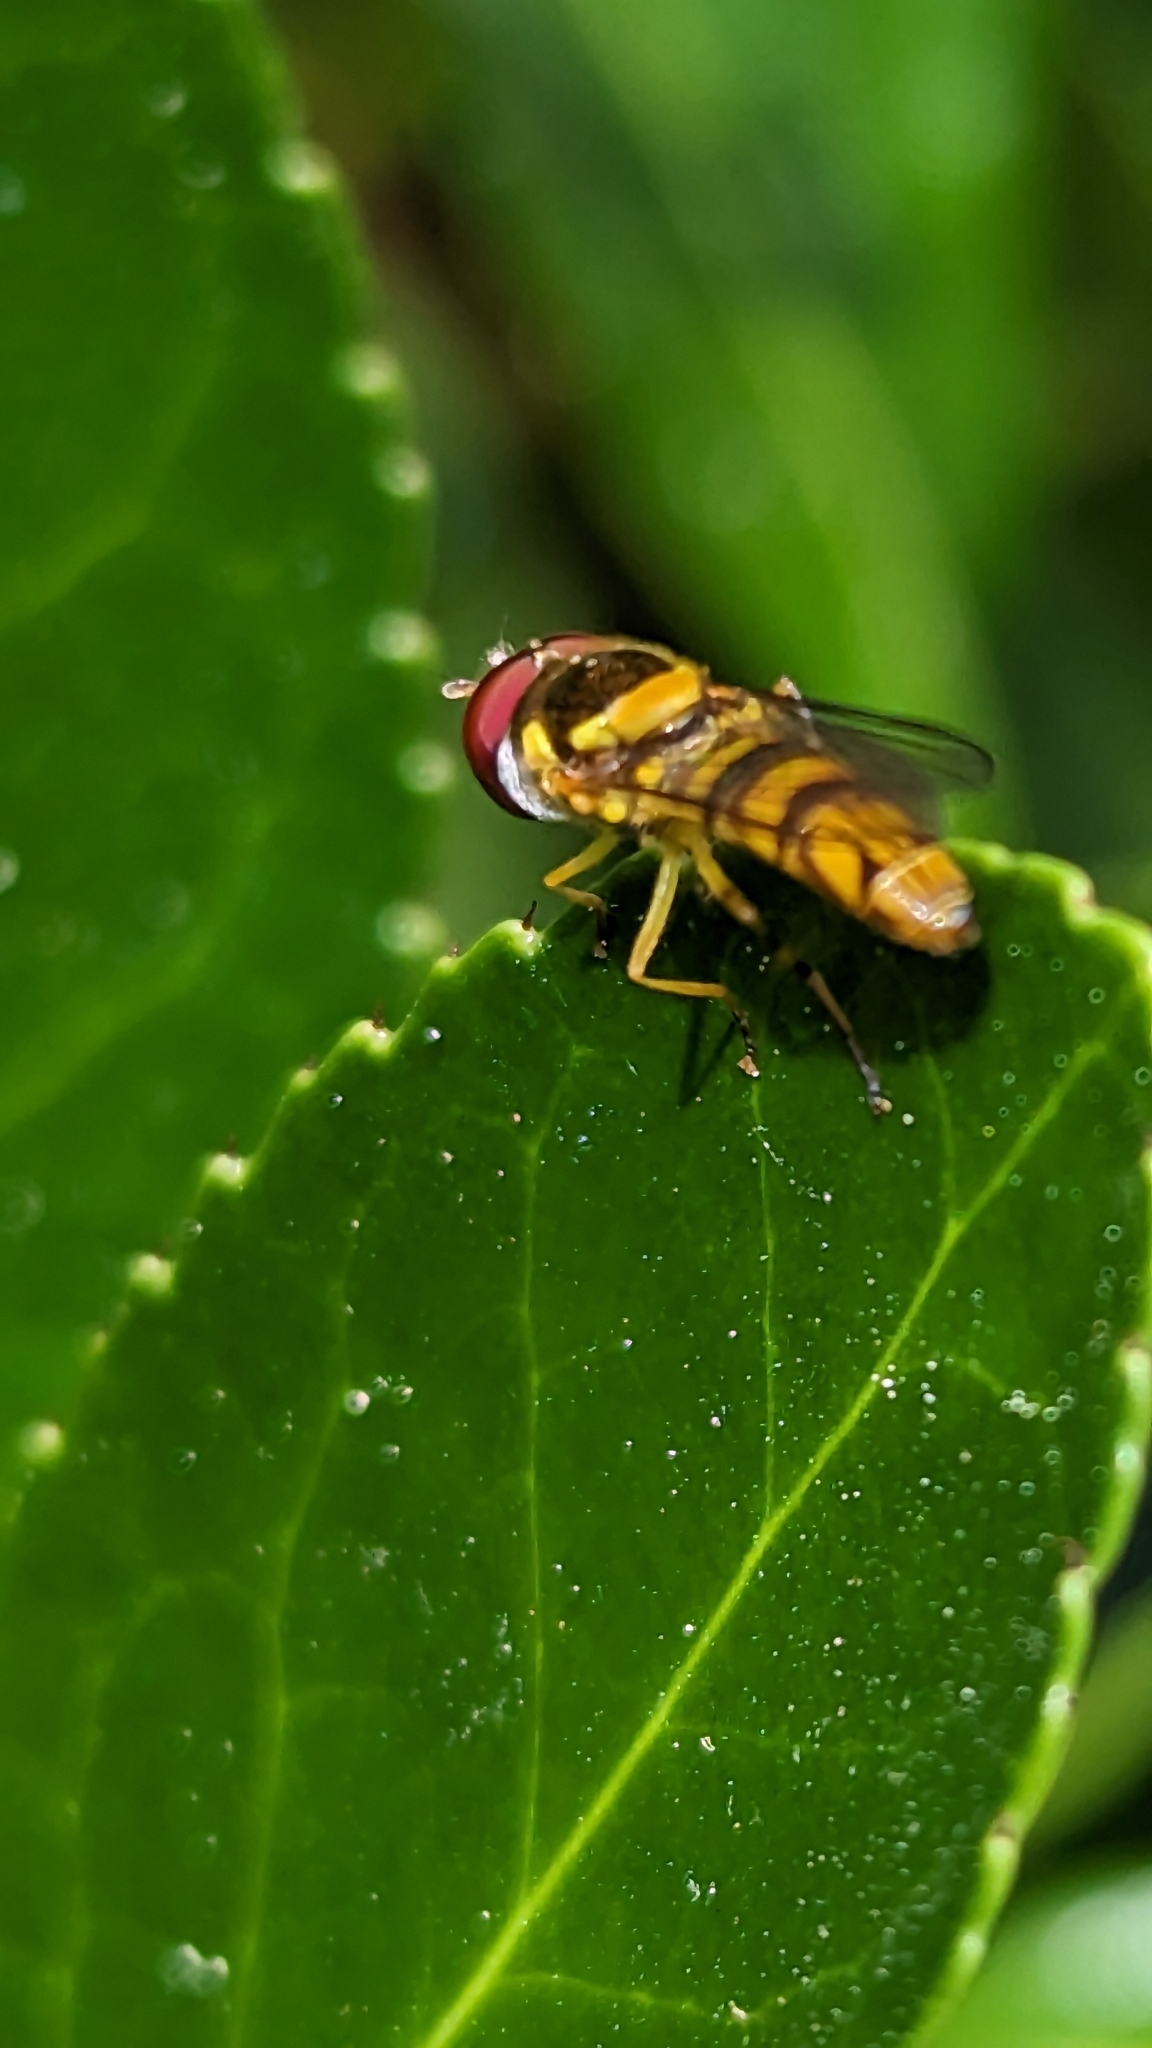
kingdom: Animalia
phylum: Arthropoda
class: Insecta
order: Diptera
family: Syrphidae
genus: Allograpta
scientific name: Allograpta obliqua
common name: Common oblique syrphid
